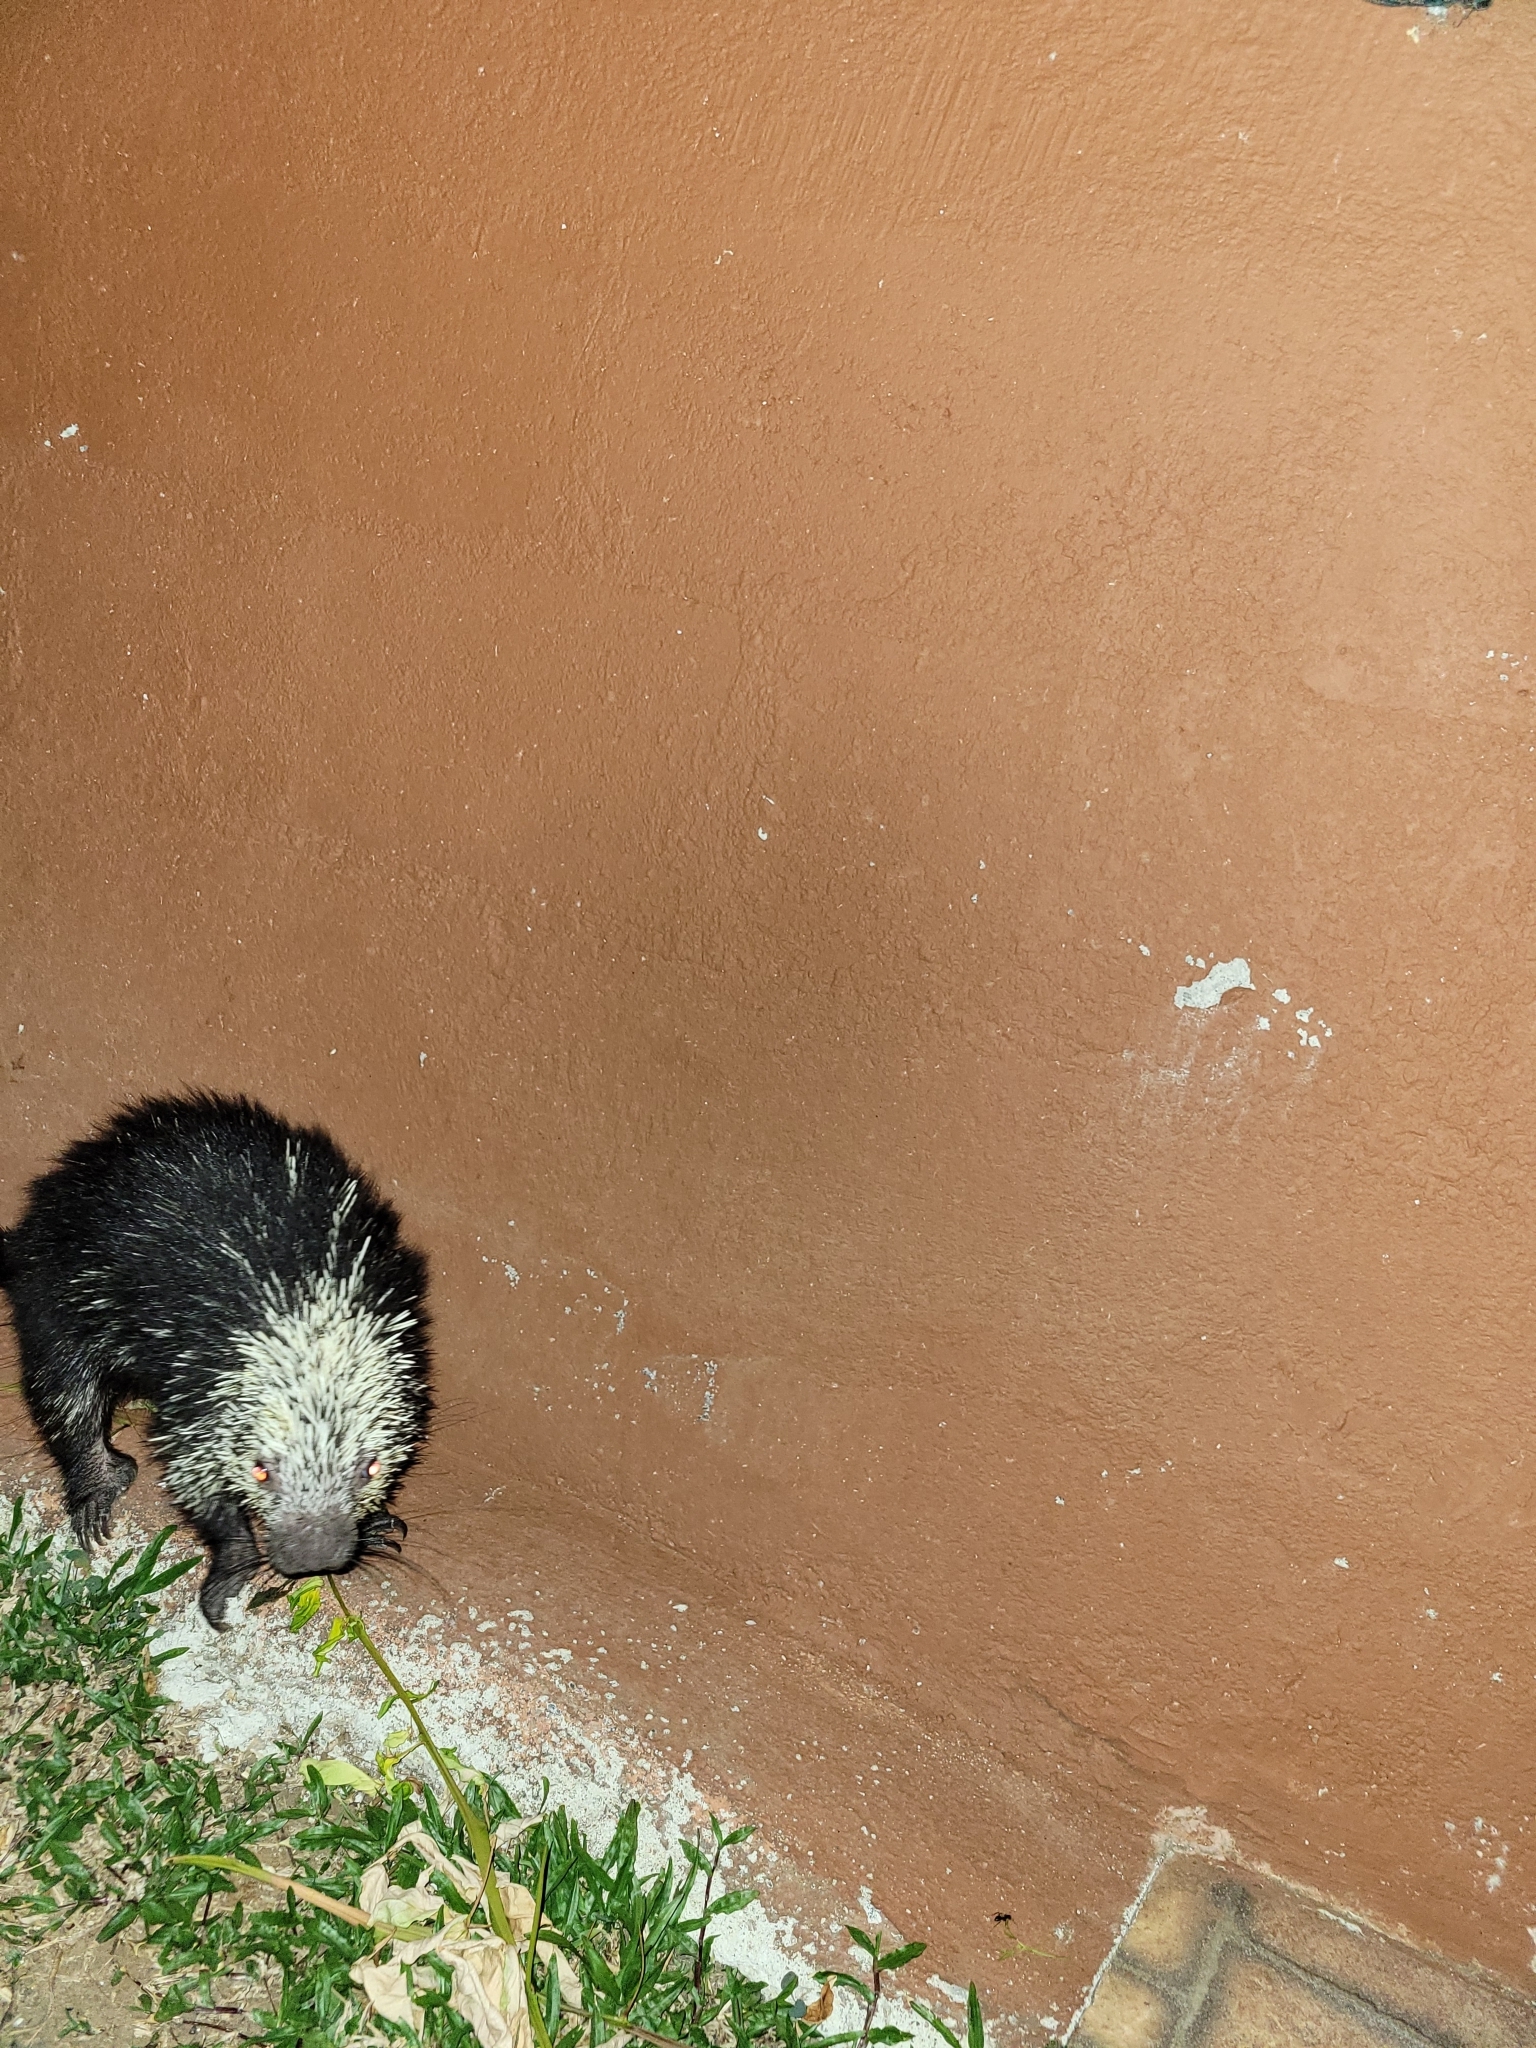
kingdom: Animalia
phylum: Chordata
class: Mammalia
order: Rodentia
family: Erethizontidae
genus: Sphiggurus
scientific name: Sphiggurus mexicanus
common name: Mexican hairy dwarf porcupine
